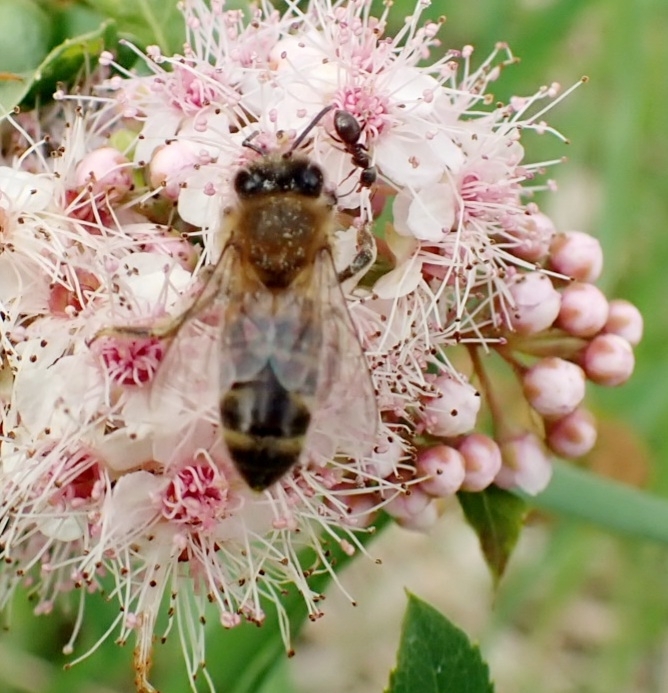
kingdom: Animalia
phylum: Arthropoda
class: Insecta
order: Hymenoptera
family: Apidae
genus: Apis
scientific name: Apis mellifera
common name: Honey bee
